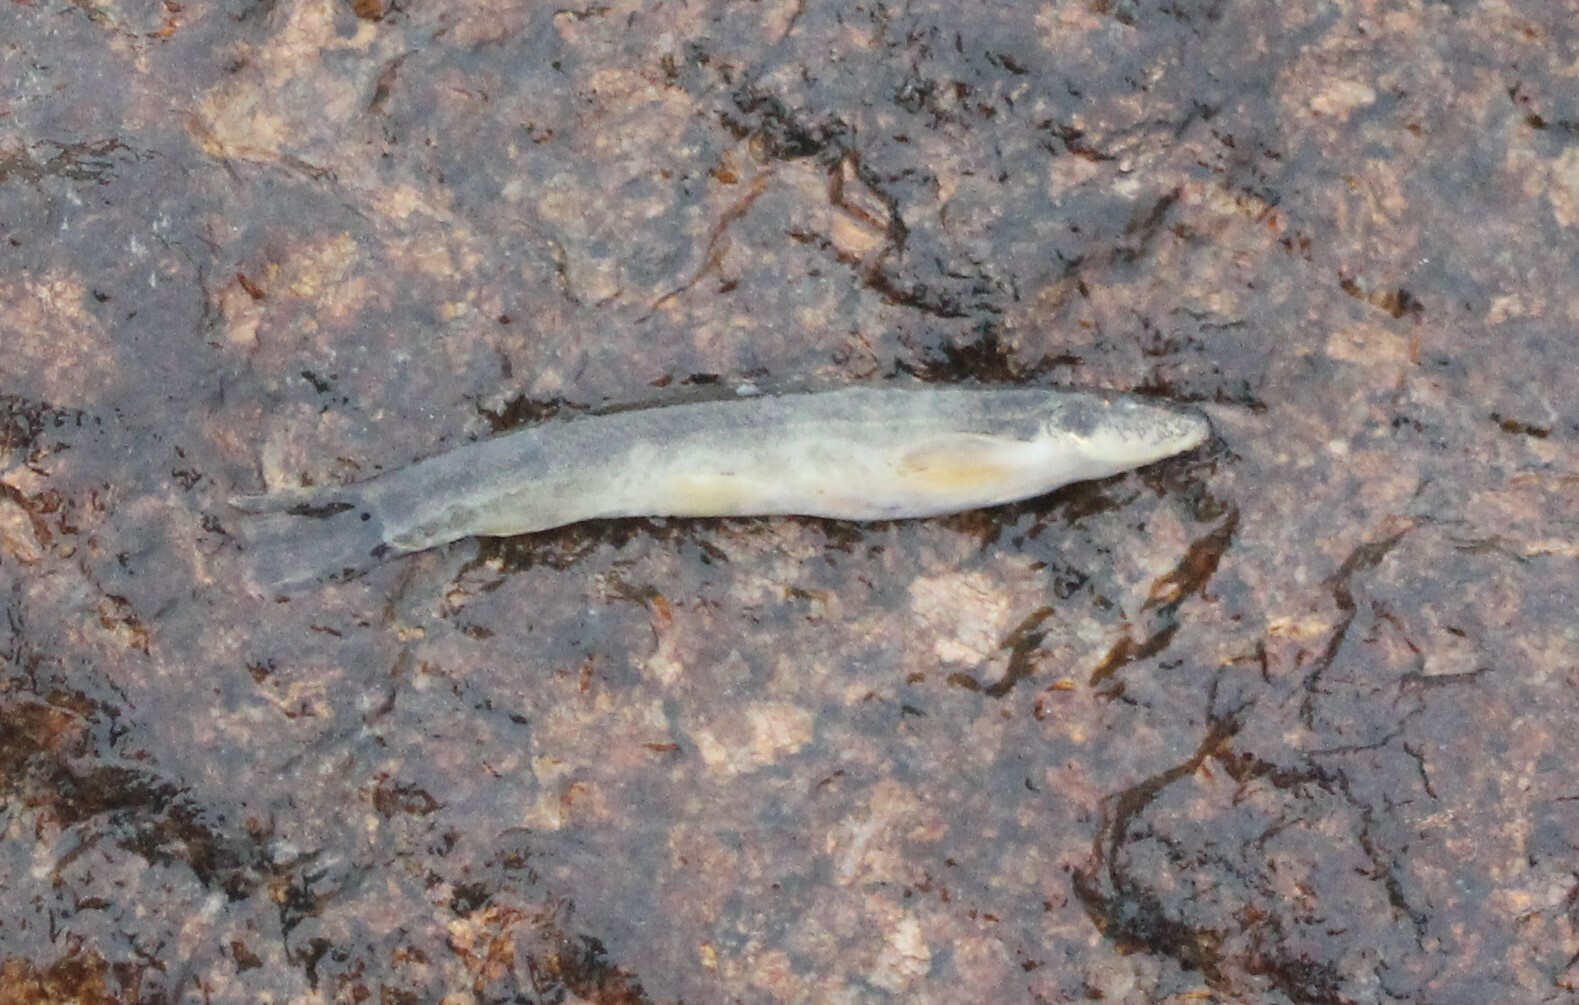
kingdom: Animalia
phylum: Chordata
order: Cypriniformes
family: Nemacheilidae
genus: Barbatula
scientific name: Barbatula barbatula
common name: Stone loach
